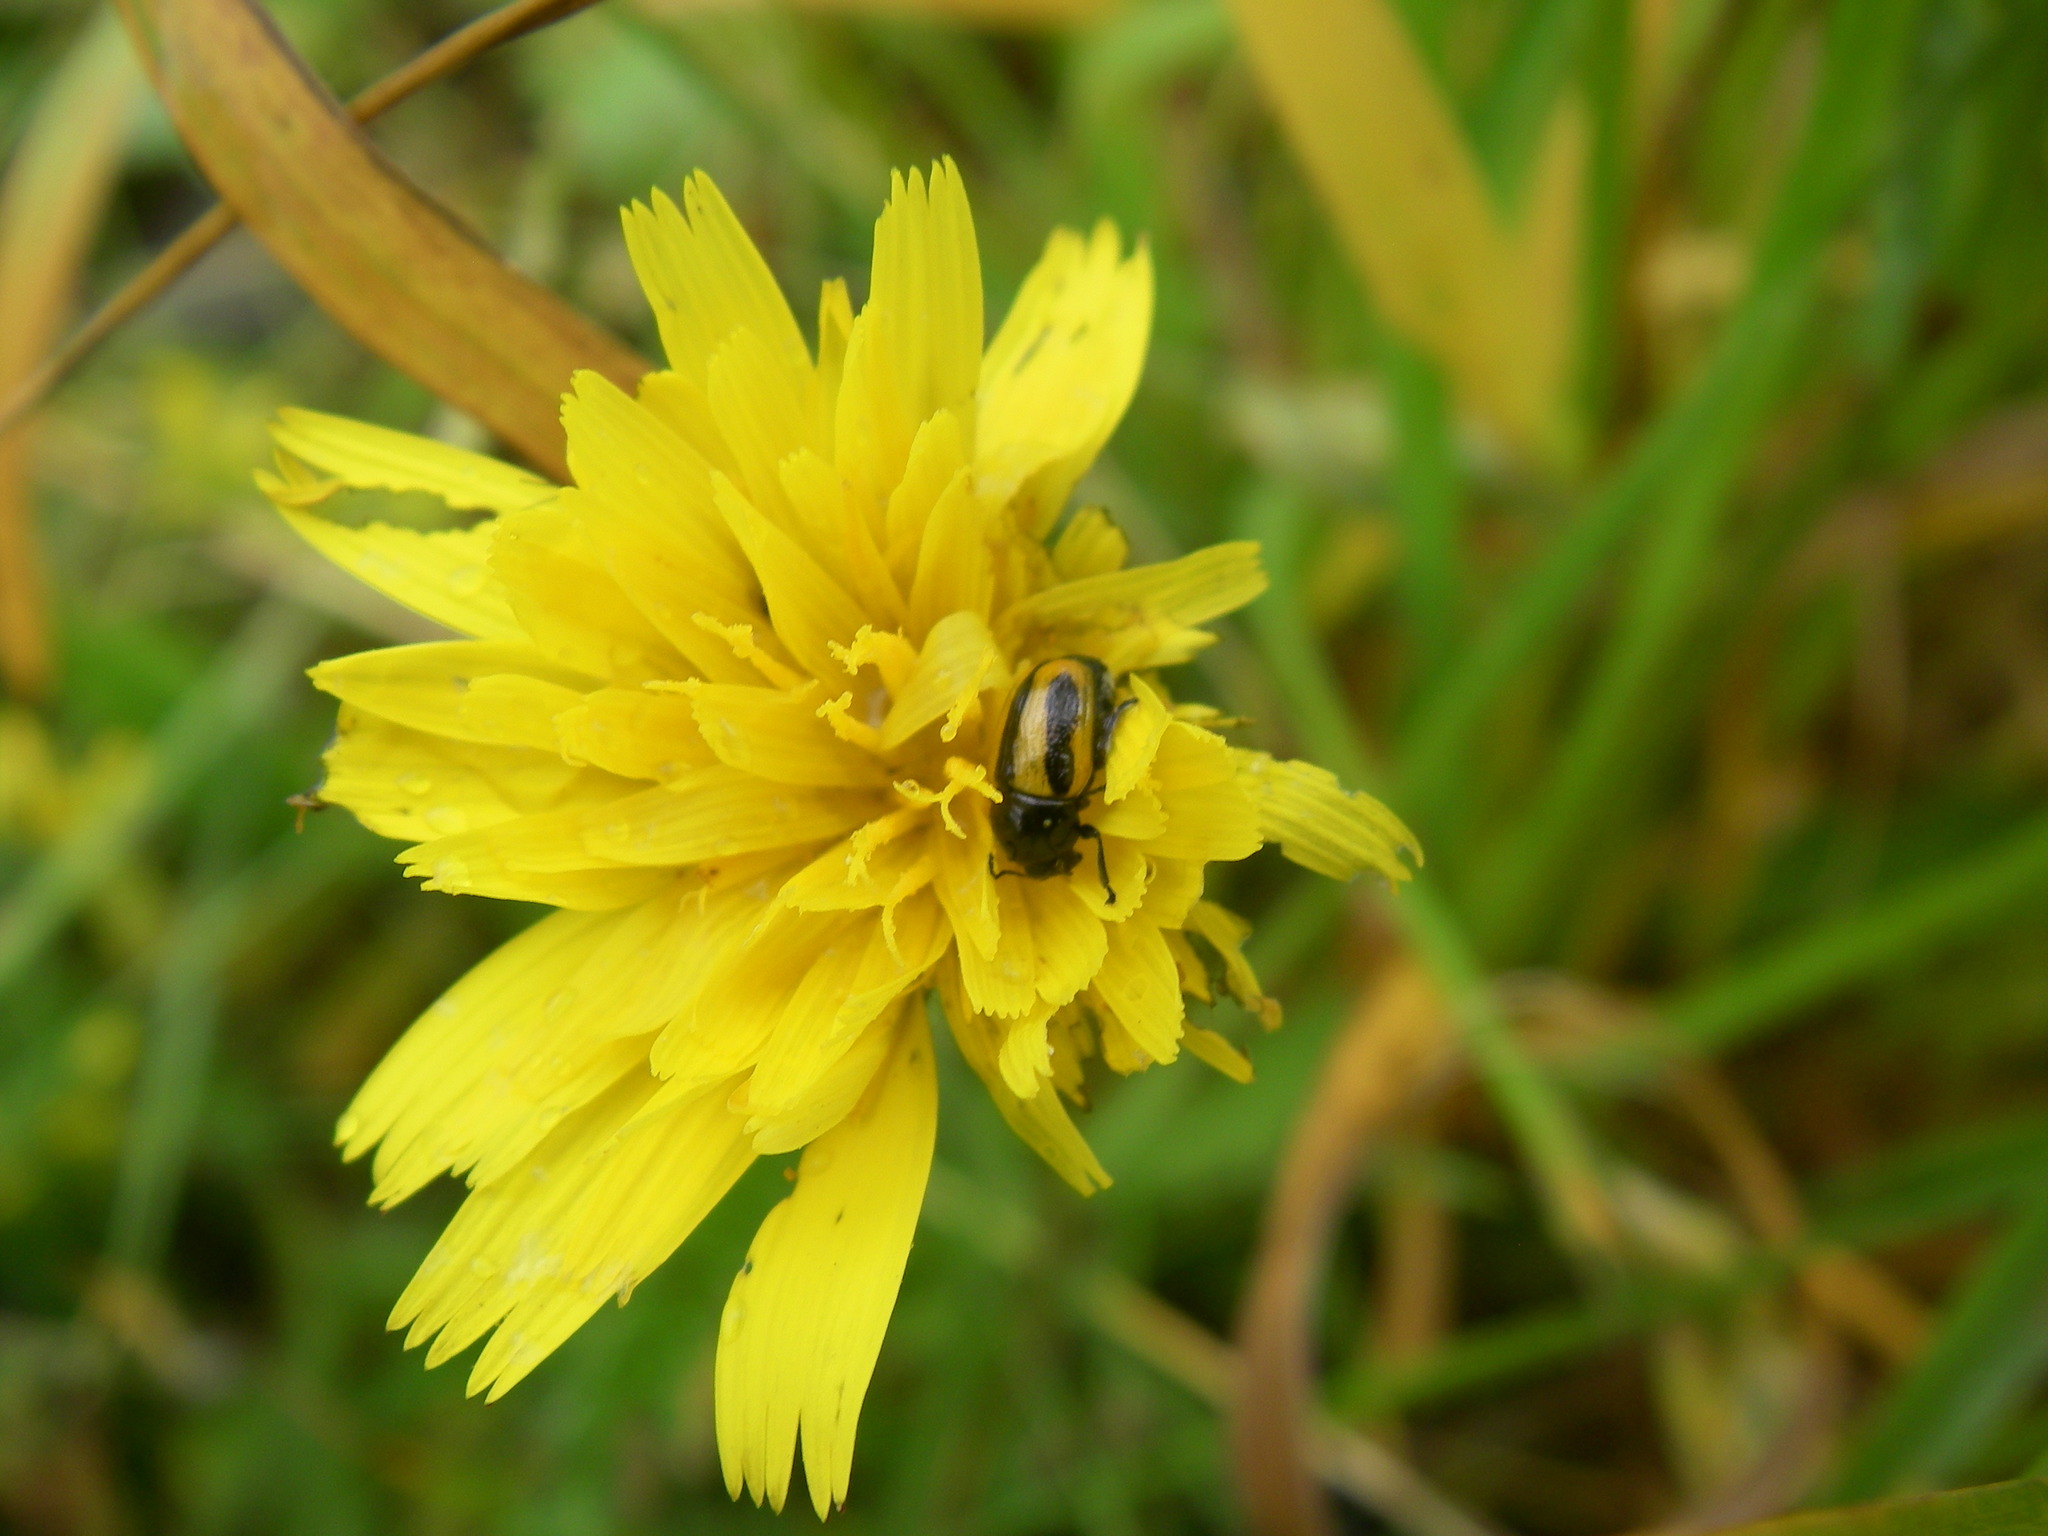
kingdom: Animalia
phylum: Arthropoda
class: Insecta
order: Coleoptera
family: Chrysomelidae
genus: Acalymma
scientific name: Acalymma vittatum
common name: Striped cucumber beetle
